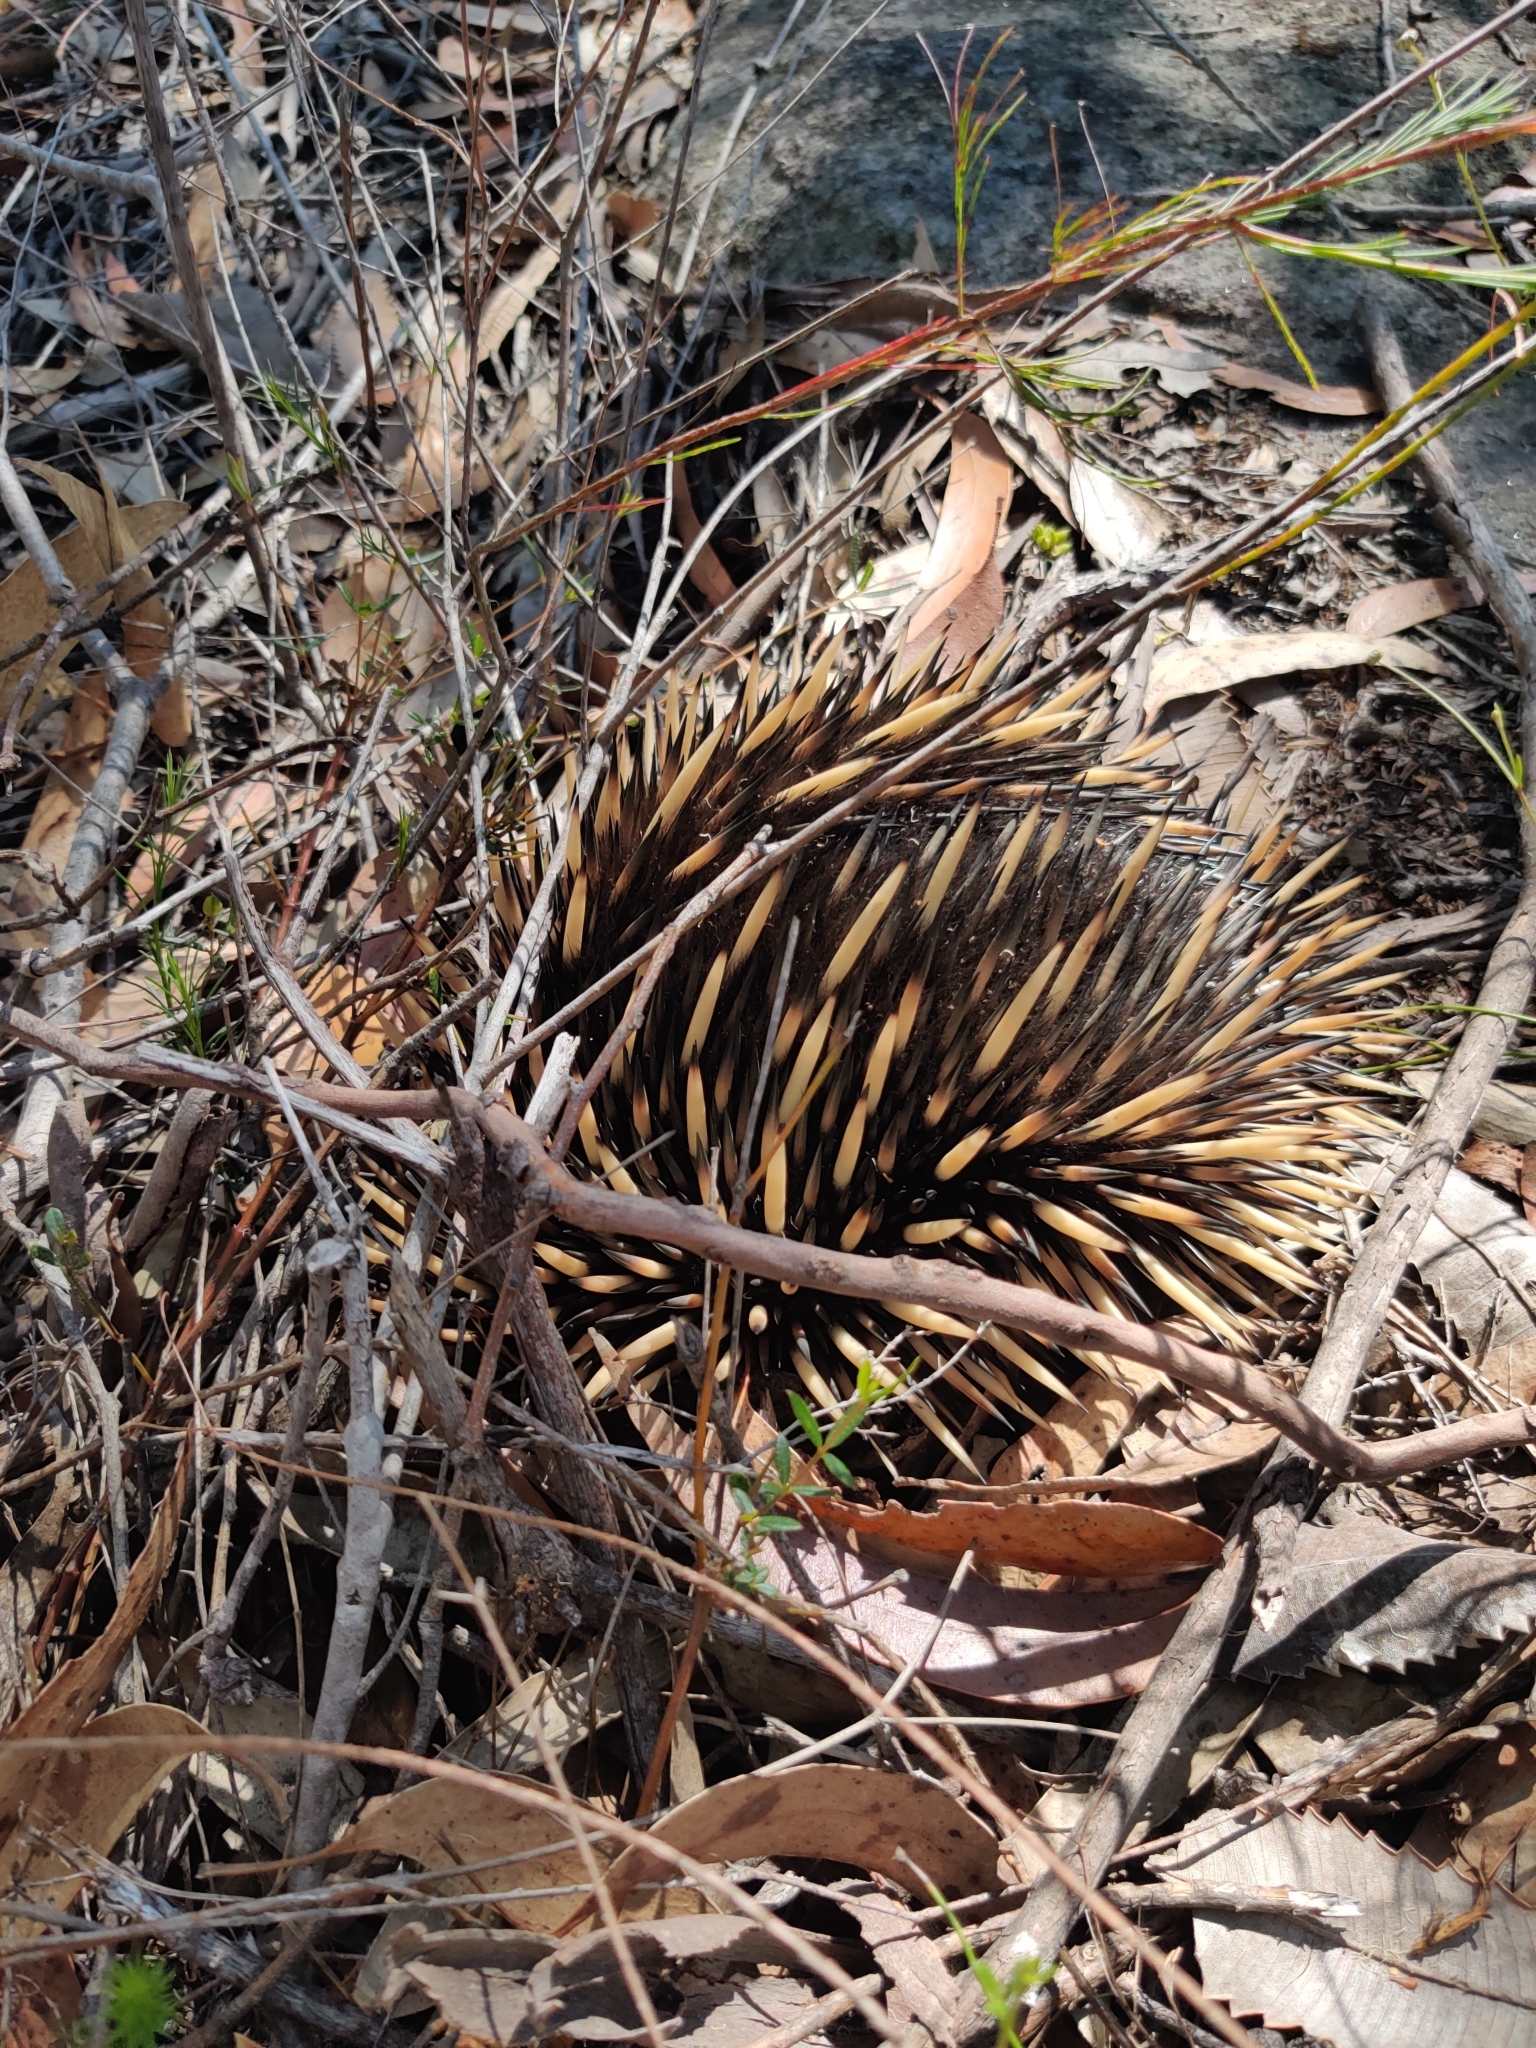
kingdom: Animalia
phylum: Chordata
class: Mammalia
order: Monotremata
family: Tachyglossidae
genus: Tachyglossus
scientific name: Tachyglossus aculeatus
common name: Short-beaked echidna
